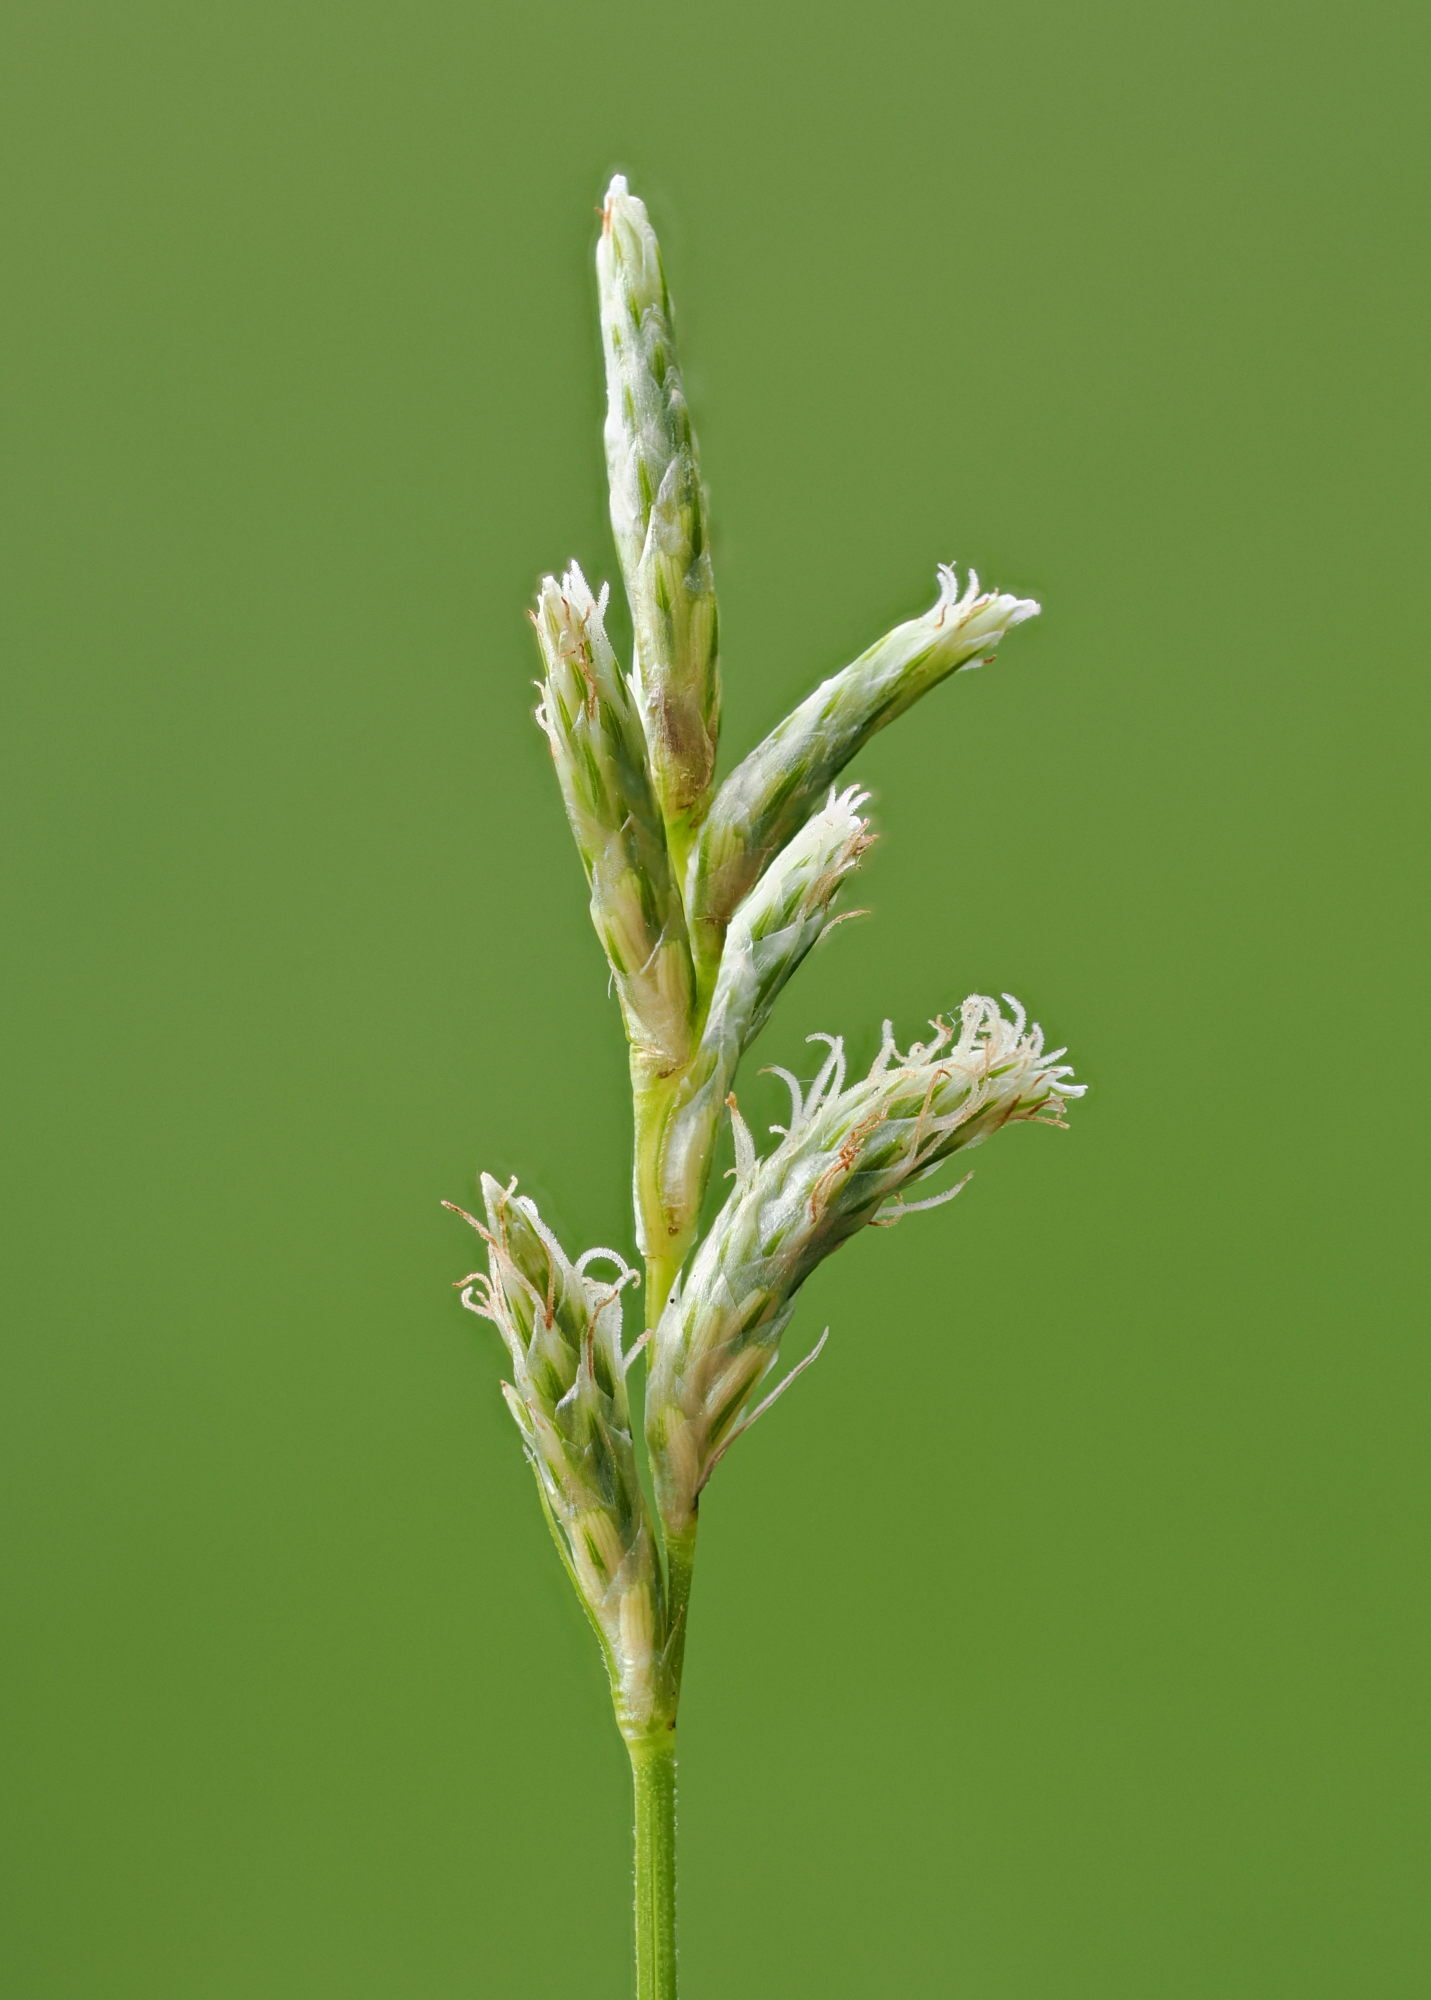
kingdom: Plantae
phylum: Tracheophyta
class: Liliopsida
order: Poales
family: Cyperaceae
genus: Carex
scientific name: Carex brizoides
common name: Quaking-grass sedge
